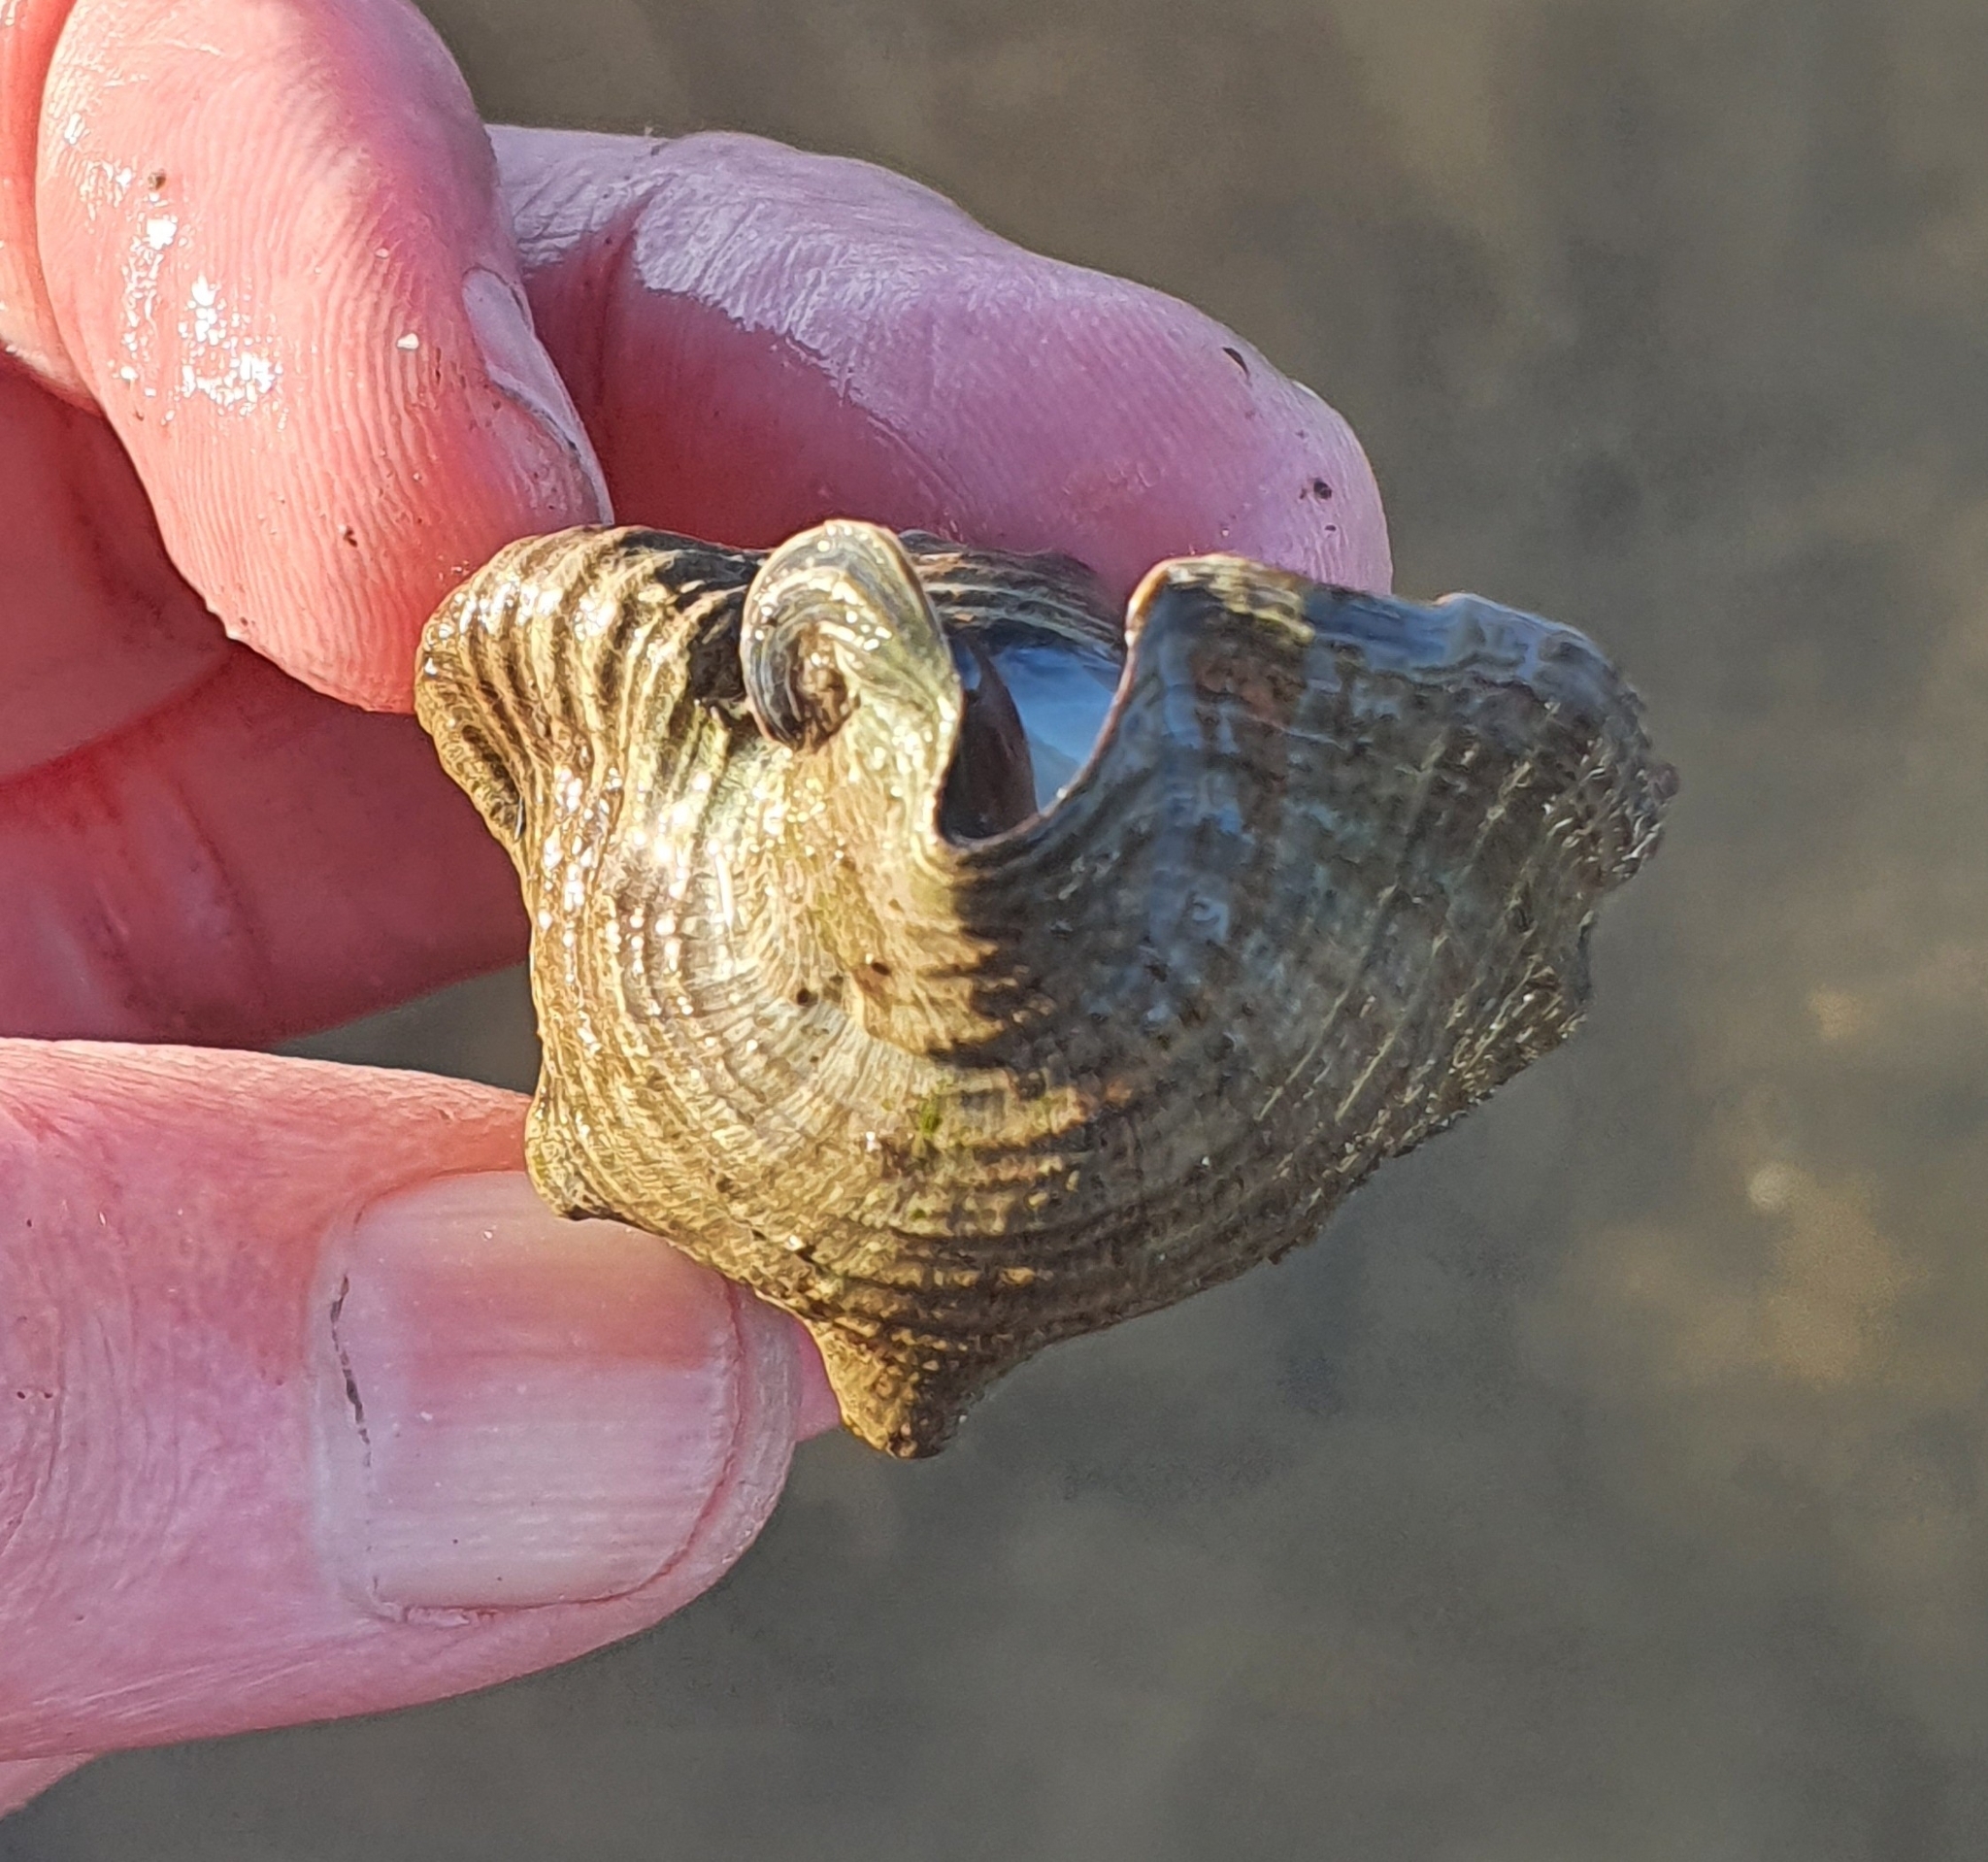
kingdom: Animalia
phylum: Mollusca
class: Gastropoda
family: Batillariidae
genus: Pyrazus
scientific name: Pyrazus ebeninus
